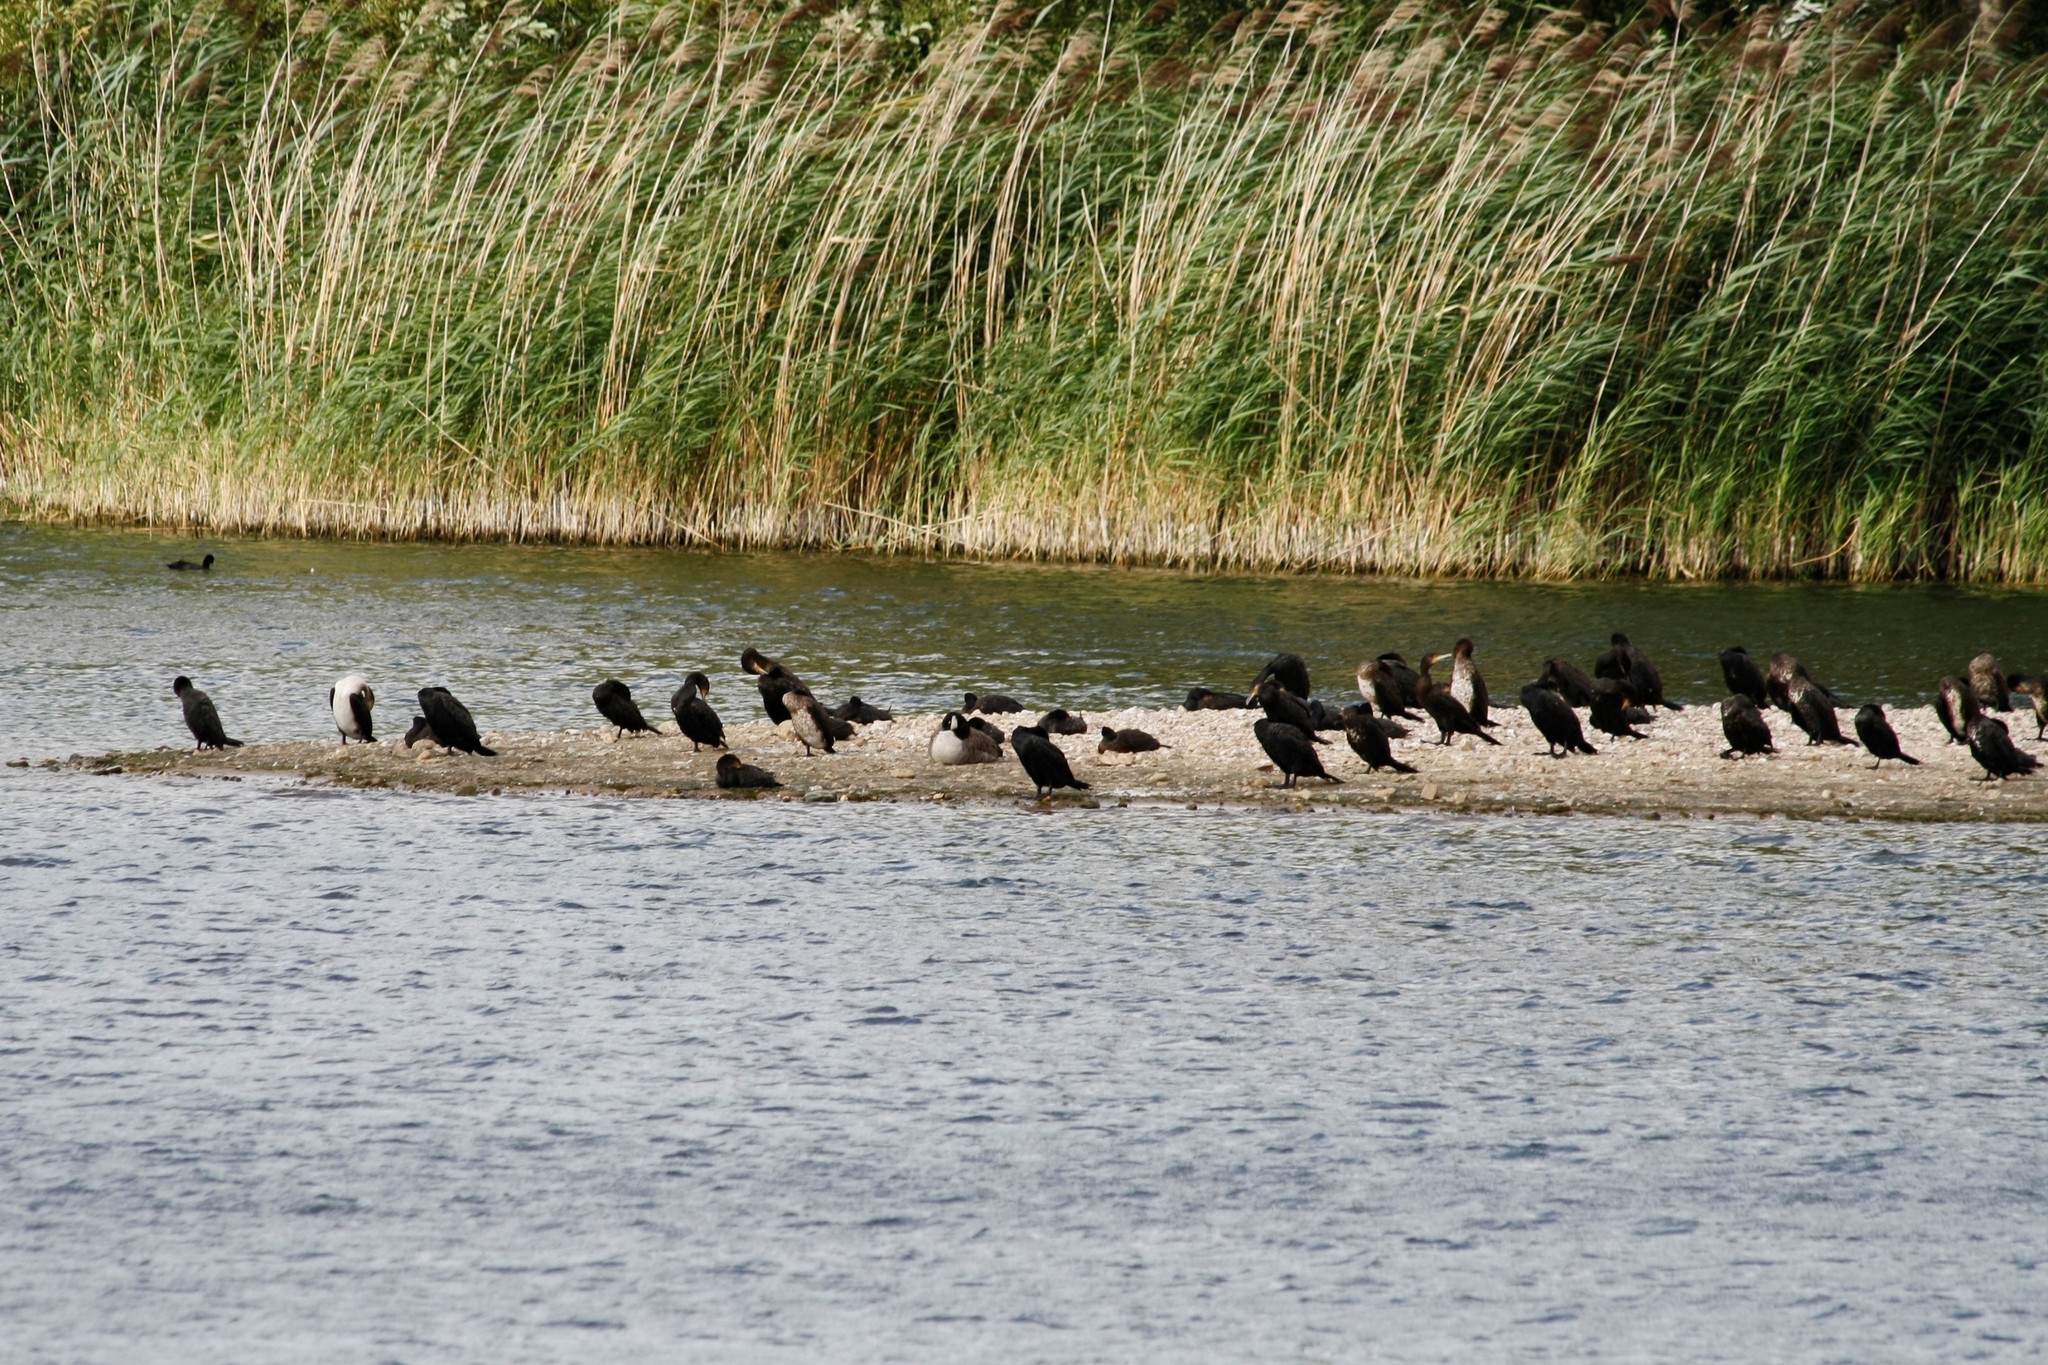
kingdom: Animalia
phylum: Chordata
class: Aves
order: Suliformes
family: Phalacrocoracidae
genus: Phalacrocorax
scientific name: Phalacrocorax carbo
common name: Great cormorant
